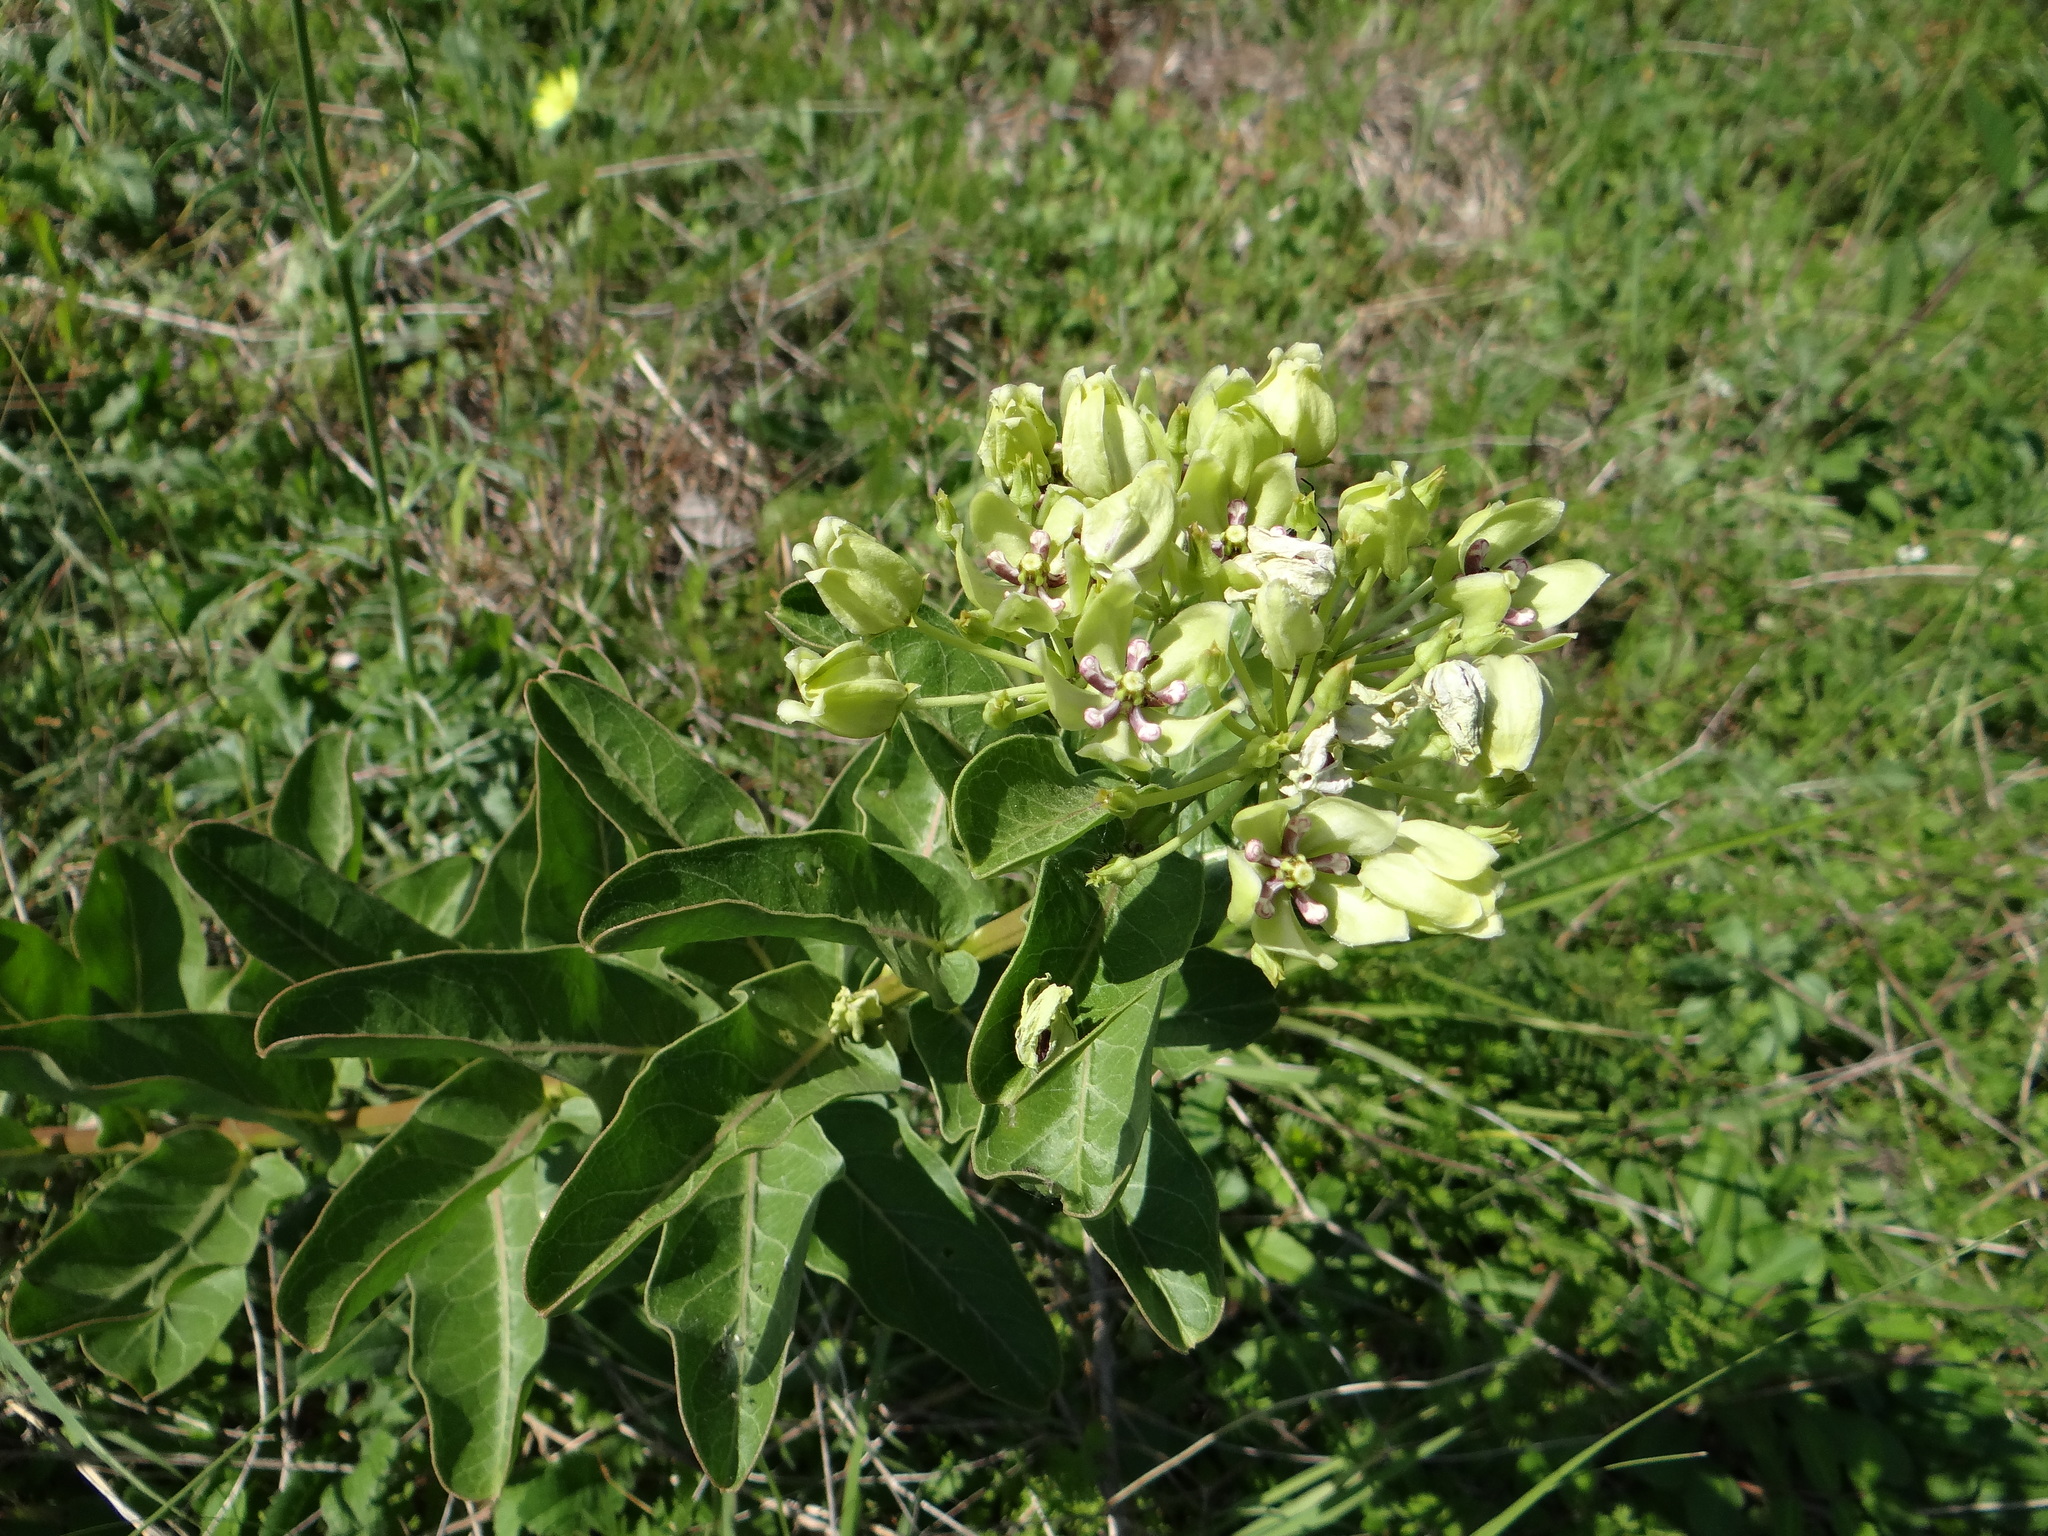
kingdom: Plantae
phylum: Tracheophyta
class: Magnoliopsida
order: Gentianales
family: Apocynaceae
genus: Asclepias
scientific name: Asclepias viridis
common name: Antelope-horns
